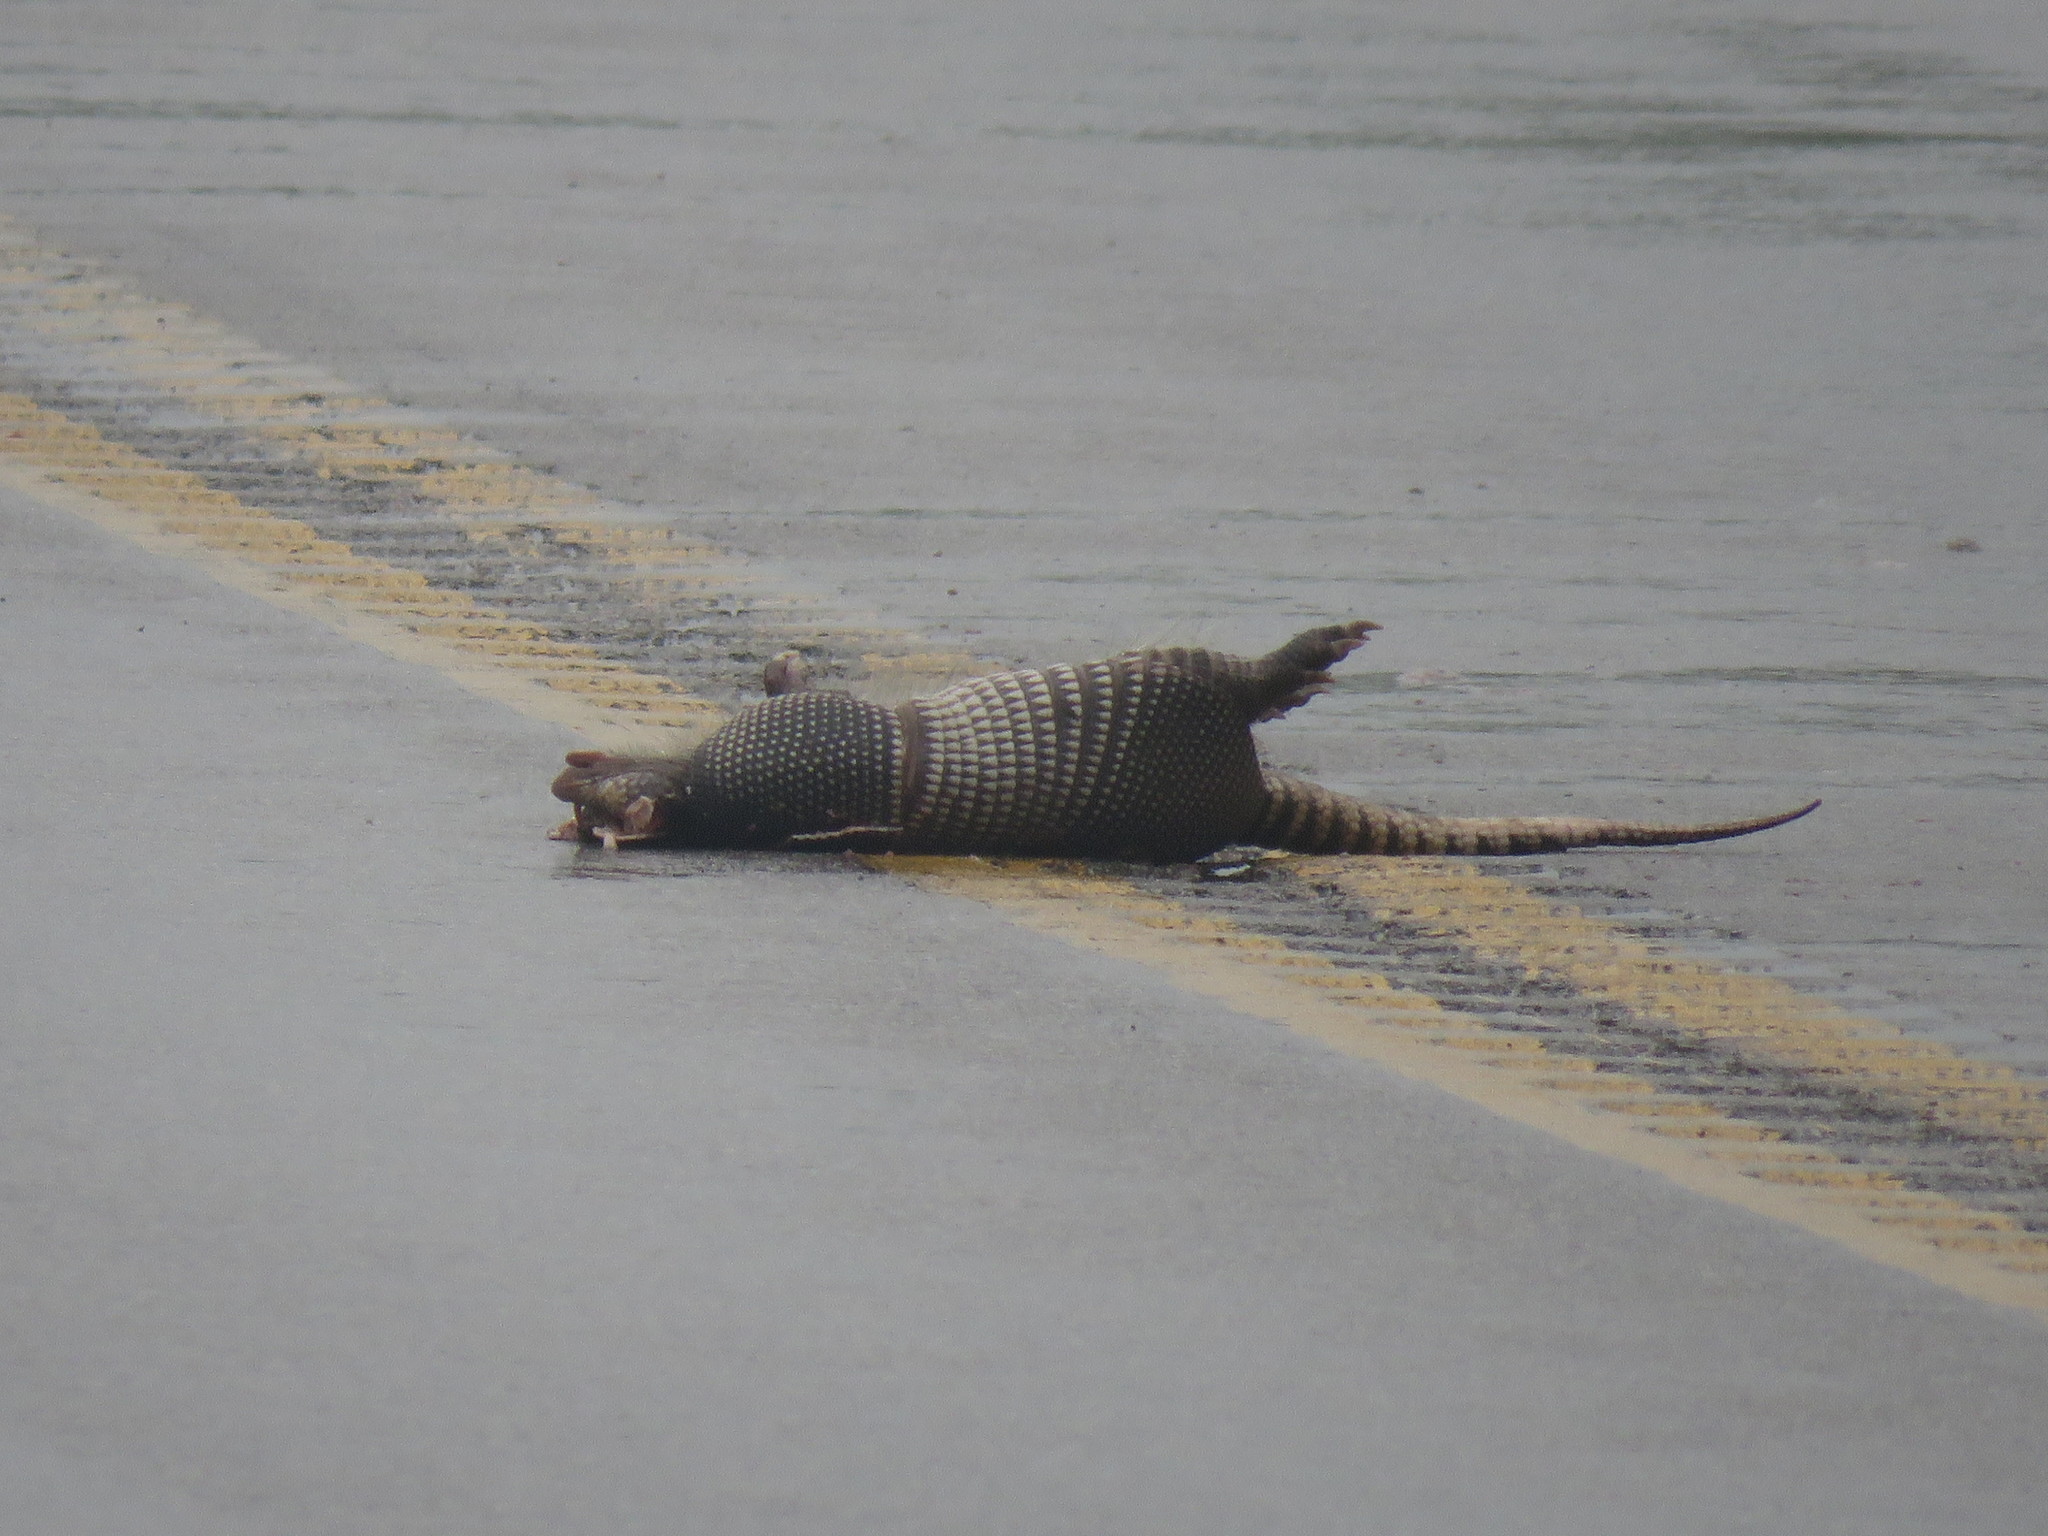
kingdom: Animalia
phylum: Chordata
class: Mammalia
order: Cingulata
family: Dasypodidae
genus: Dasypus
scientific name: Dasypus novemcinctus
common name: Nine-banded armadillo
